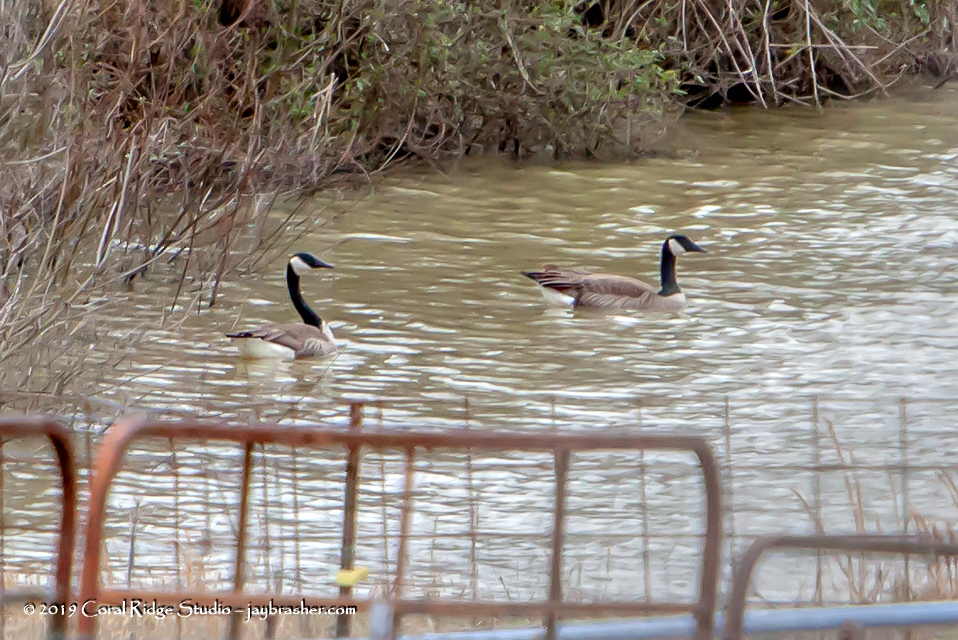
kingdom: Animalia
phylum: Chordata
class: Aves
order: Anseriformes
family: Anatidae
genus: Branta
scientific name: Branta canadensis
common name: Canada goose
